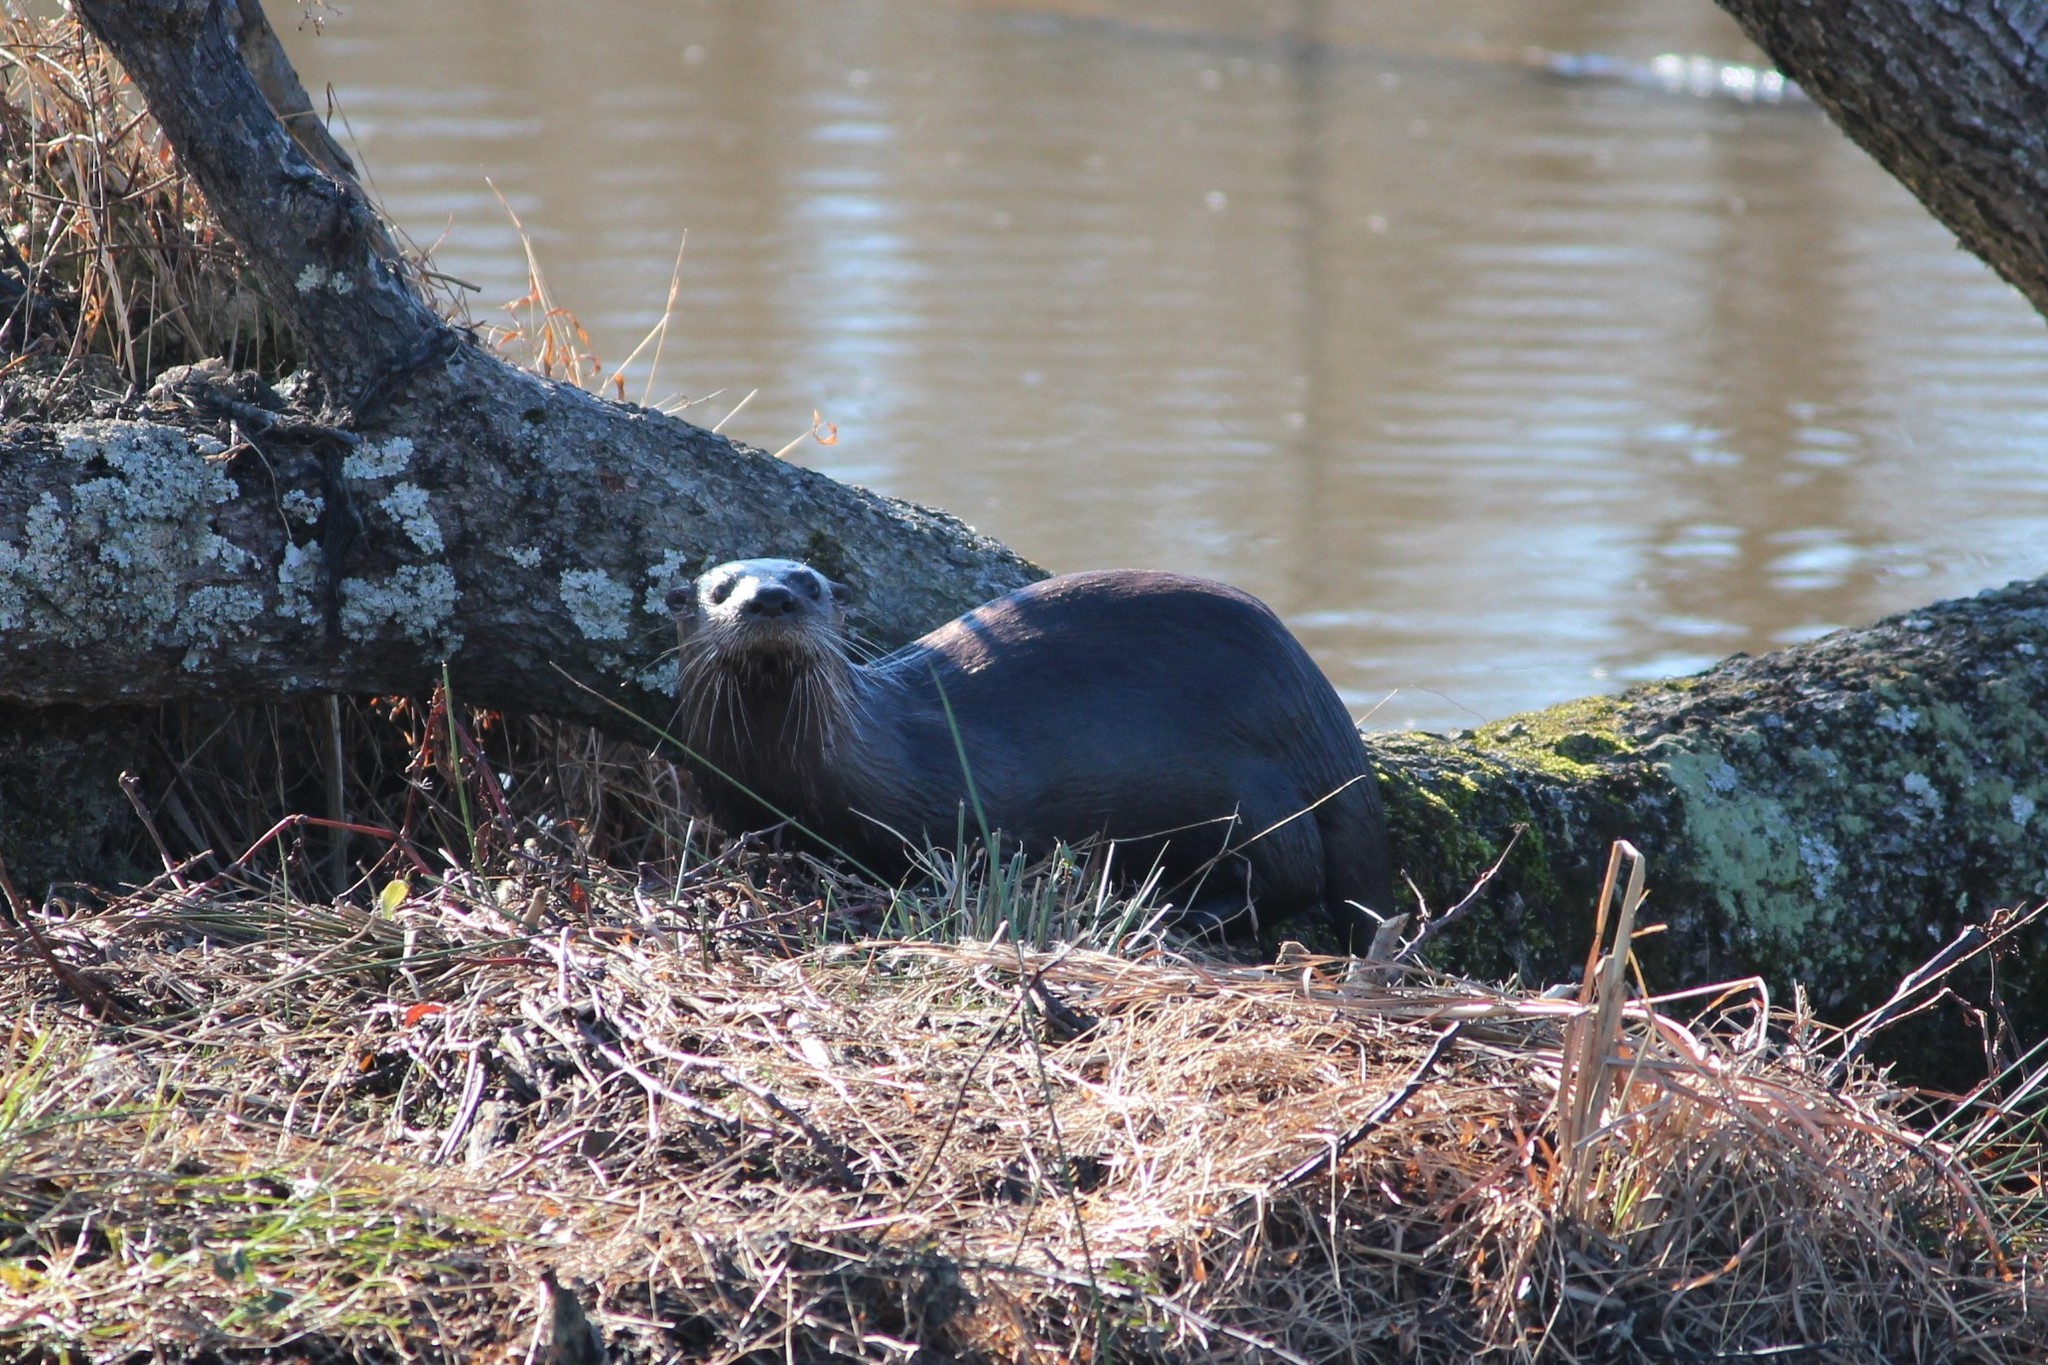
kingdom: Animalia
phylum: Chordata
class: Mammalia
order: Carnivora
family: Mustelidae
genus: Lontra
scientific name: Lontra canadensis
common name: North american river otter
